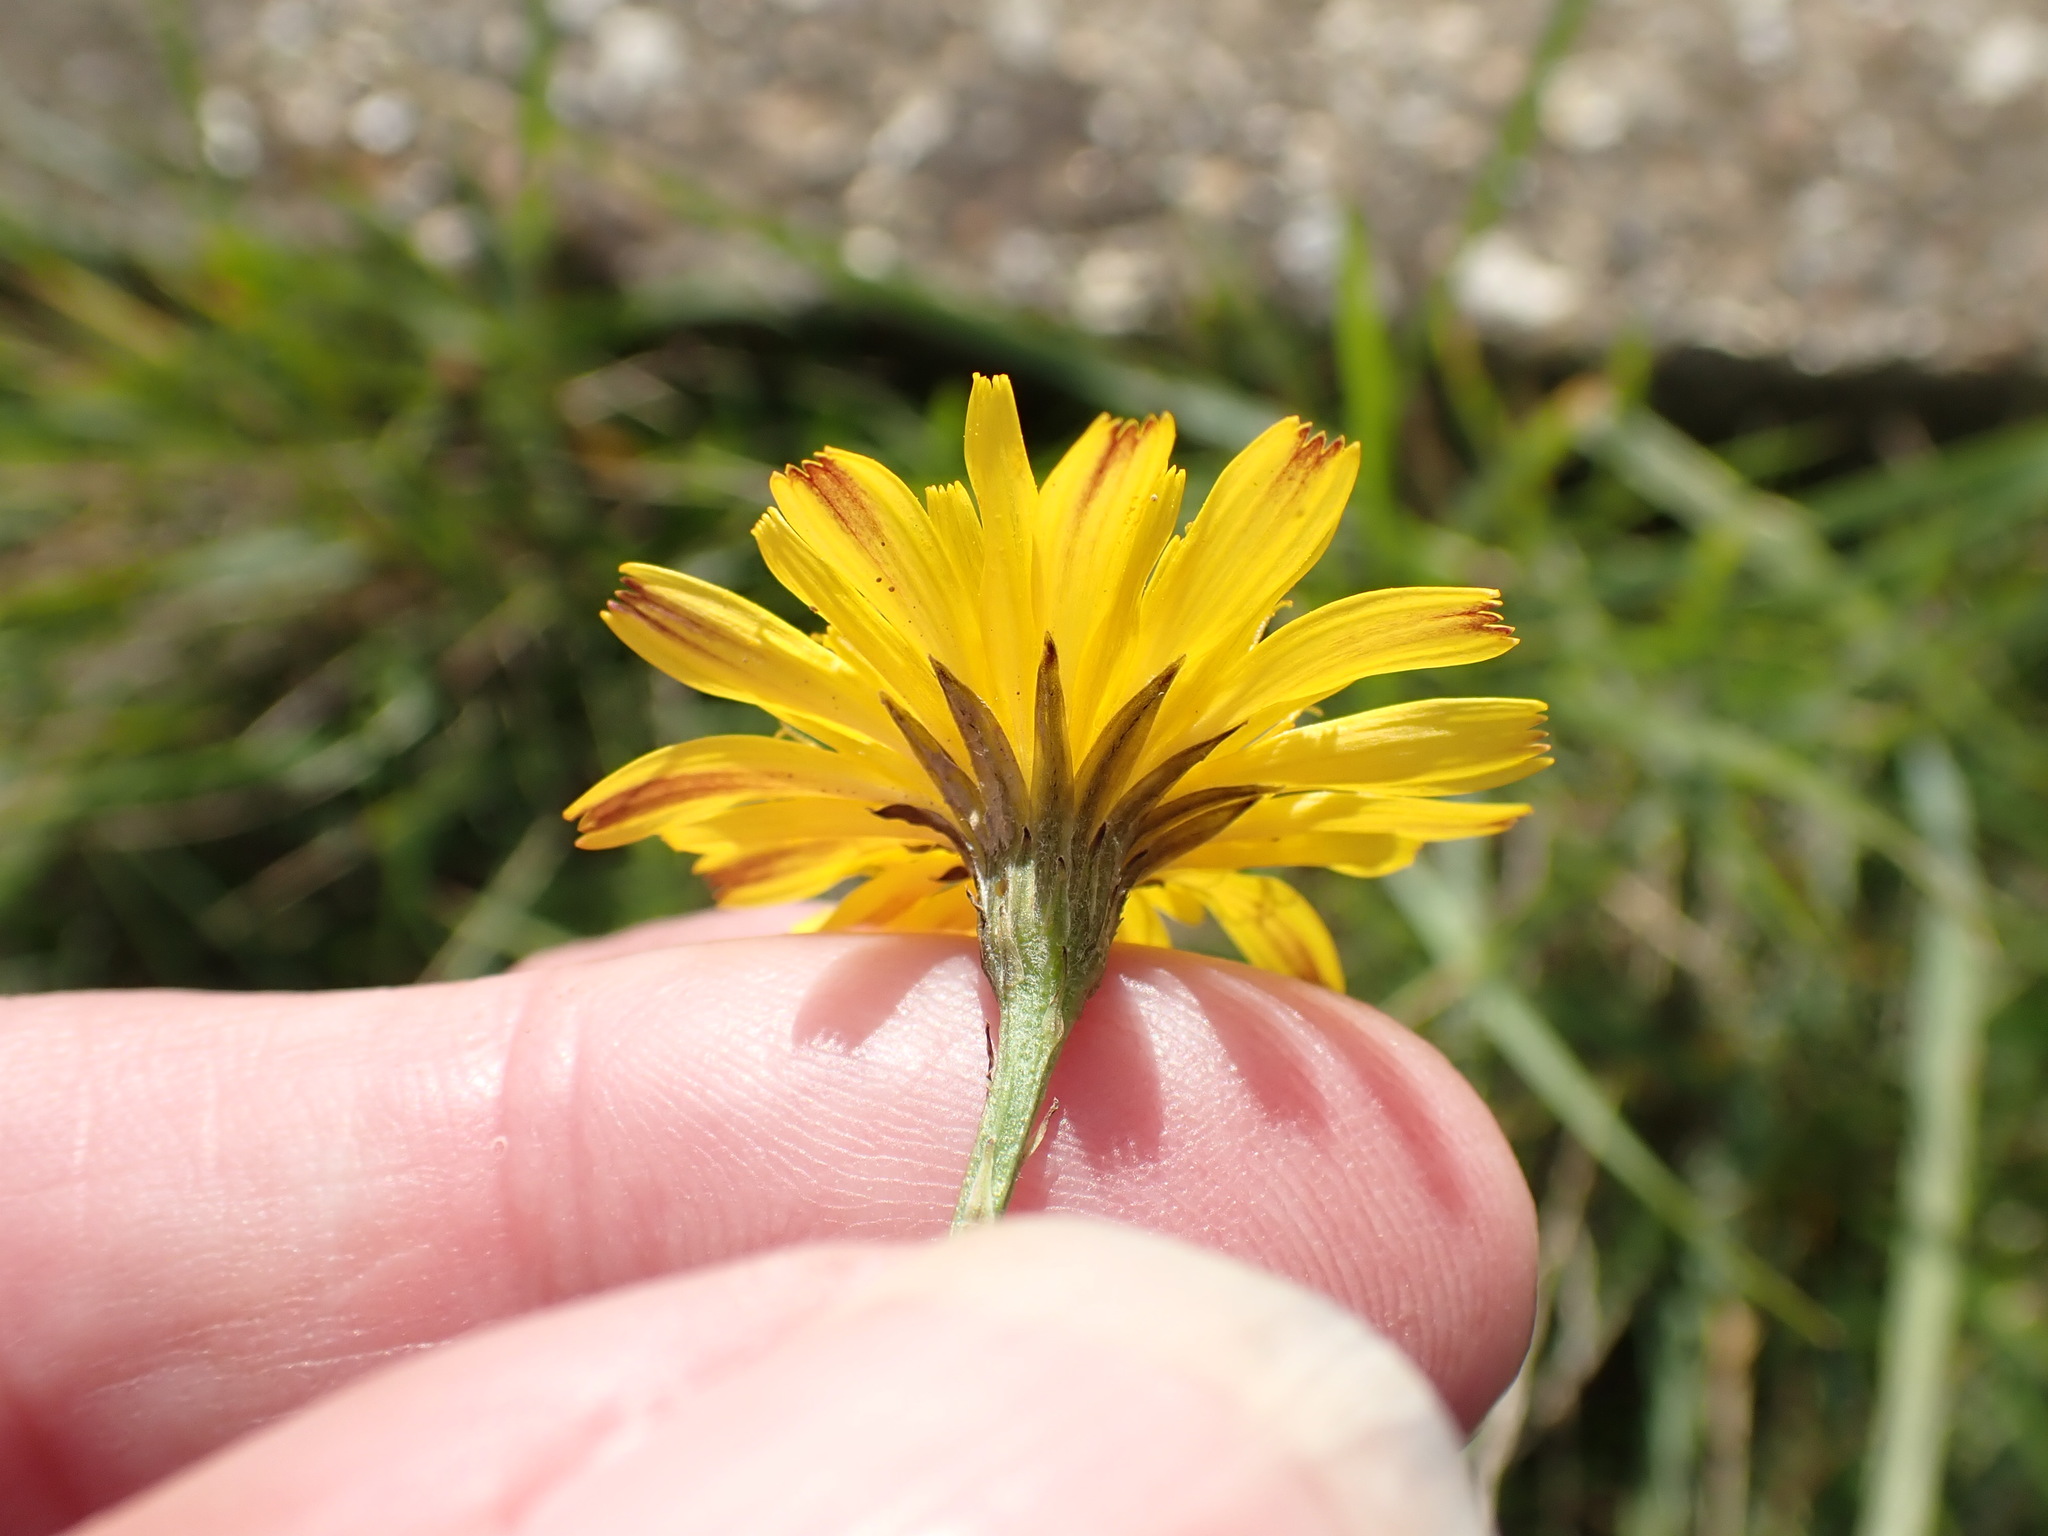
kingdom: Plantae
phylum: Tracheophyta
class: Magnoliopsida
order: Asterales
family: Asteraceae
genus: Scorzoneroides
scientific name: Scorzoneroides autumnalis
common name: Autumn hawkbit
